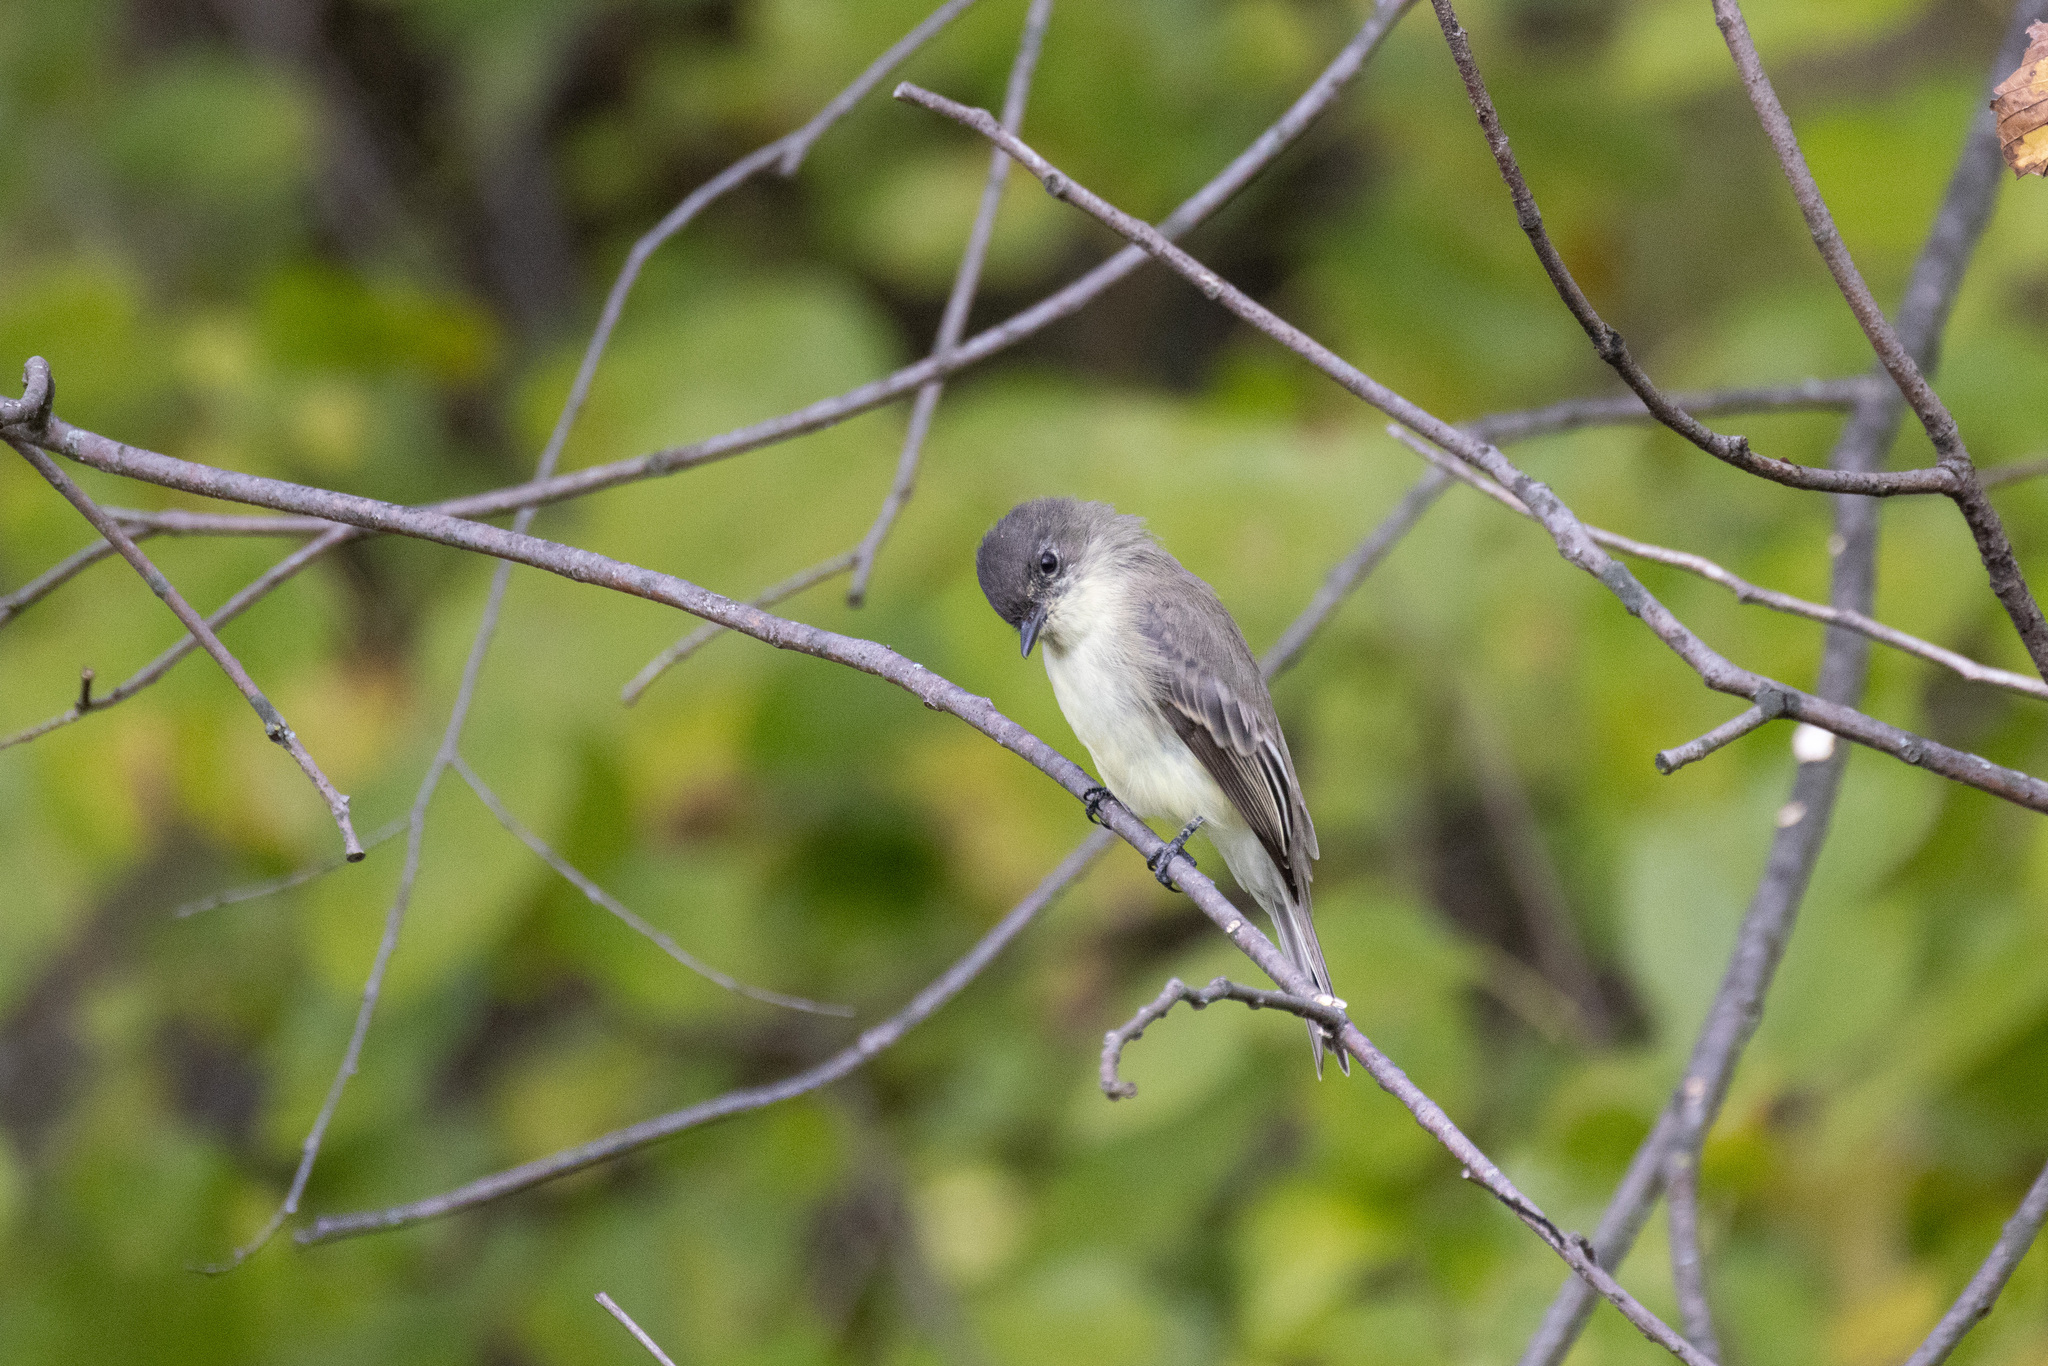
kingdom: Animalia
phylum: Chordata
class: Aves
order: Passeriformes
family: Tyrannidae
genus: Sayornis
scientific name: Sayornis phoebe
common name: Eastern phoebe
